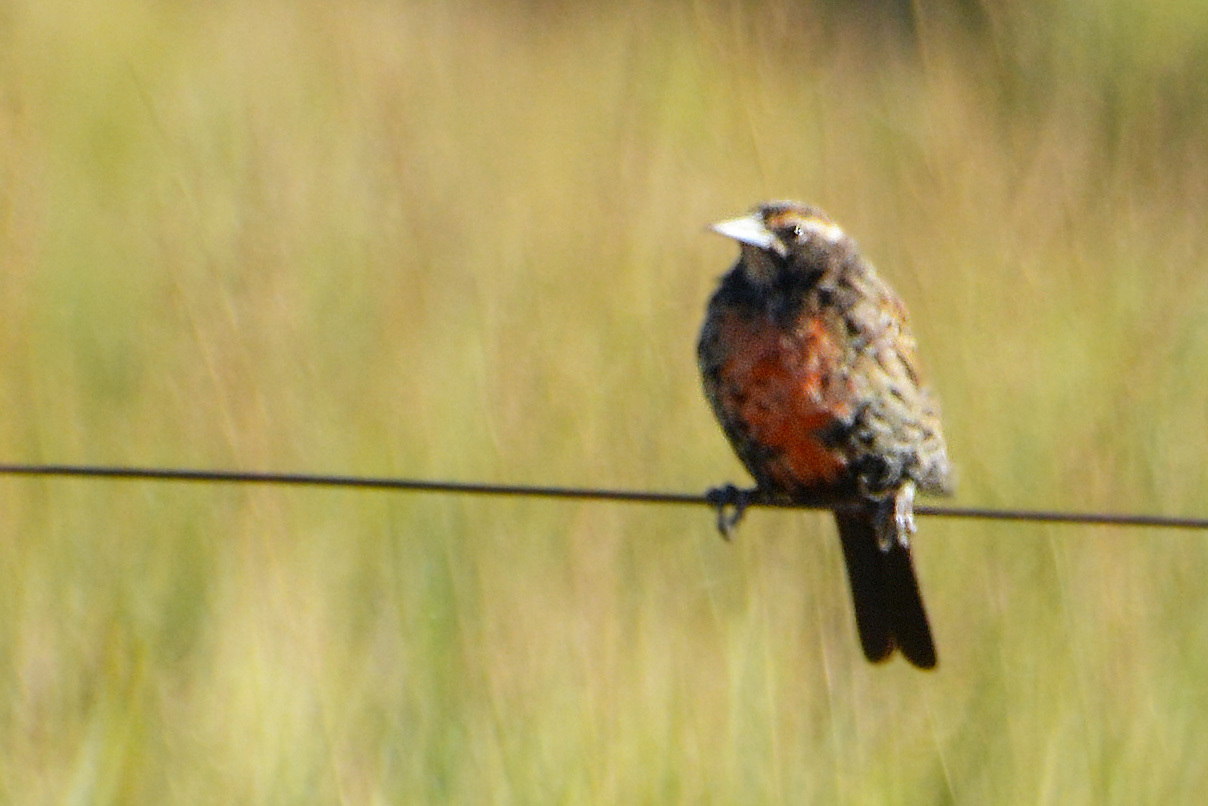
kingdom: Animalia
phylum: Chordata
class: Aves
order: Passeriformes
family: Icteridae
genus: Sturnella
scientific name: Sturnella loyca
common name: Long-tailed meadowlark
